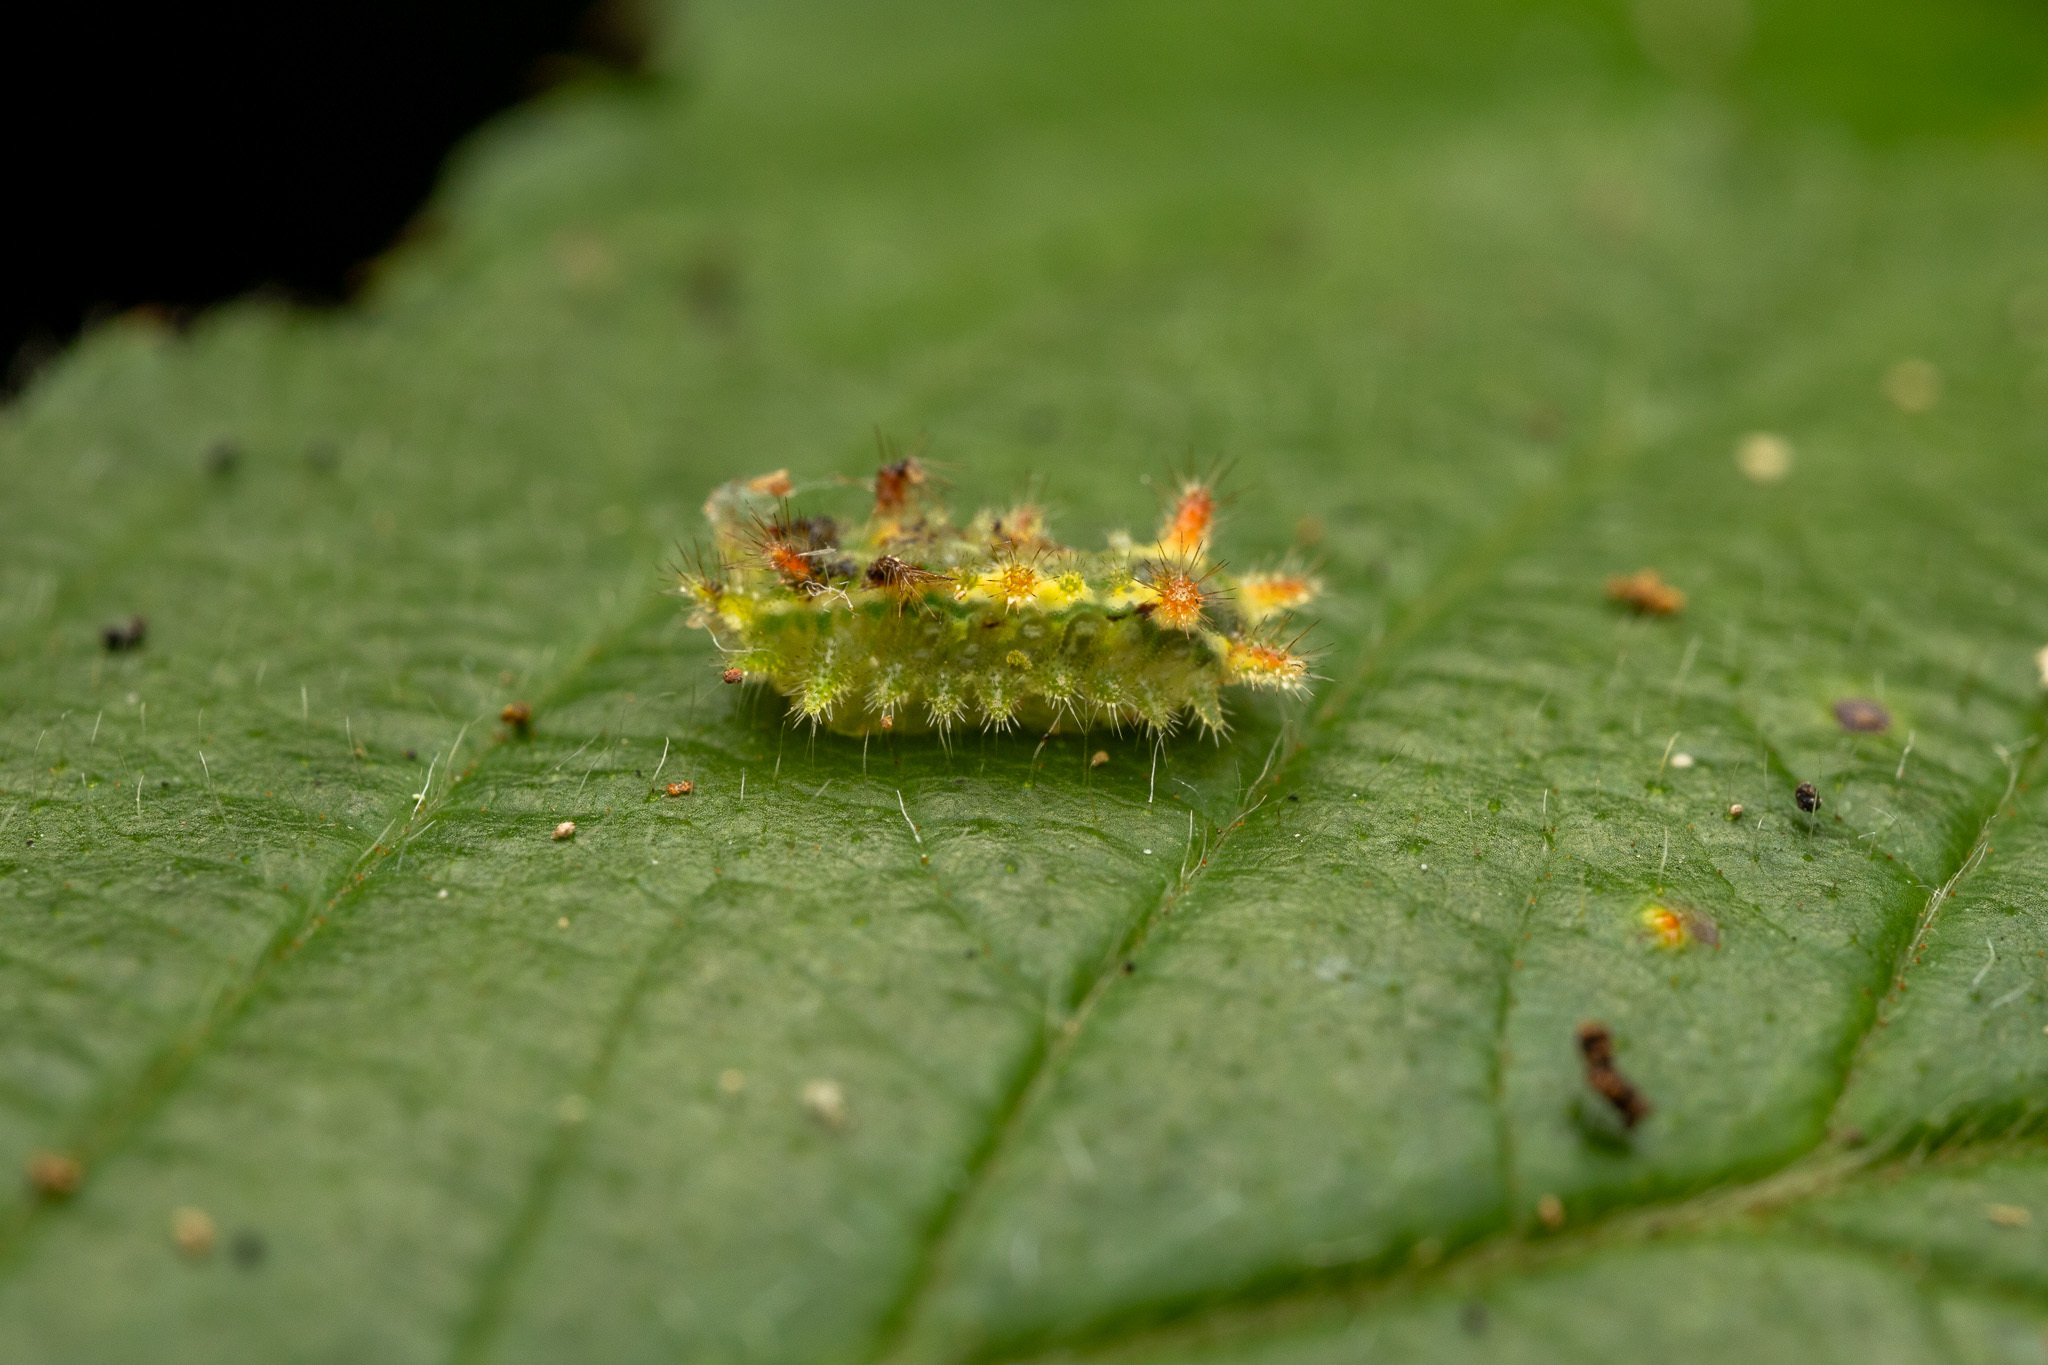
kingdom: Animalia
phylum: Arthropoda
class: Insecta
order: Lepidoptera
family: Limacodidae
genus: Euclea
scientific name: Euclea delphinii
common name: Spiny oak-slug moth
